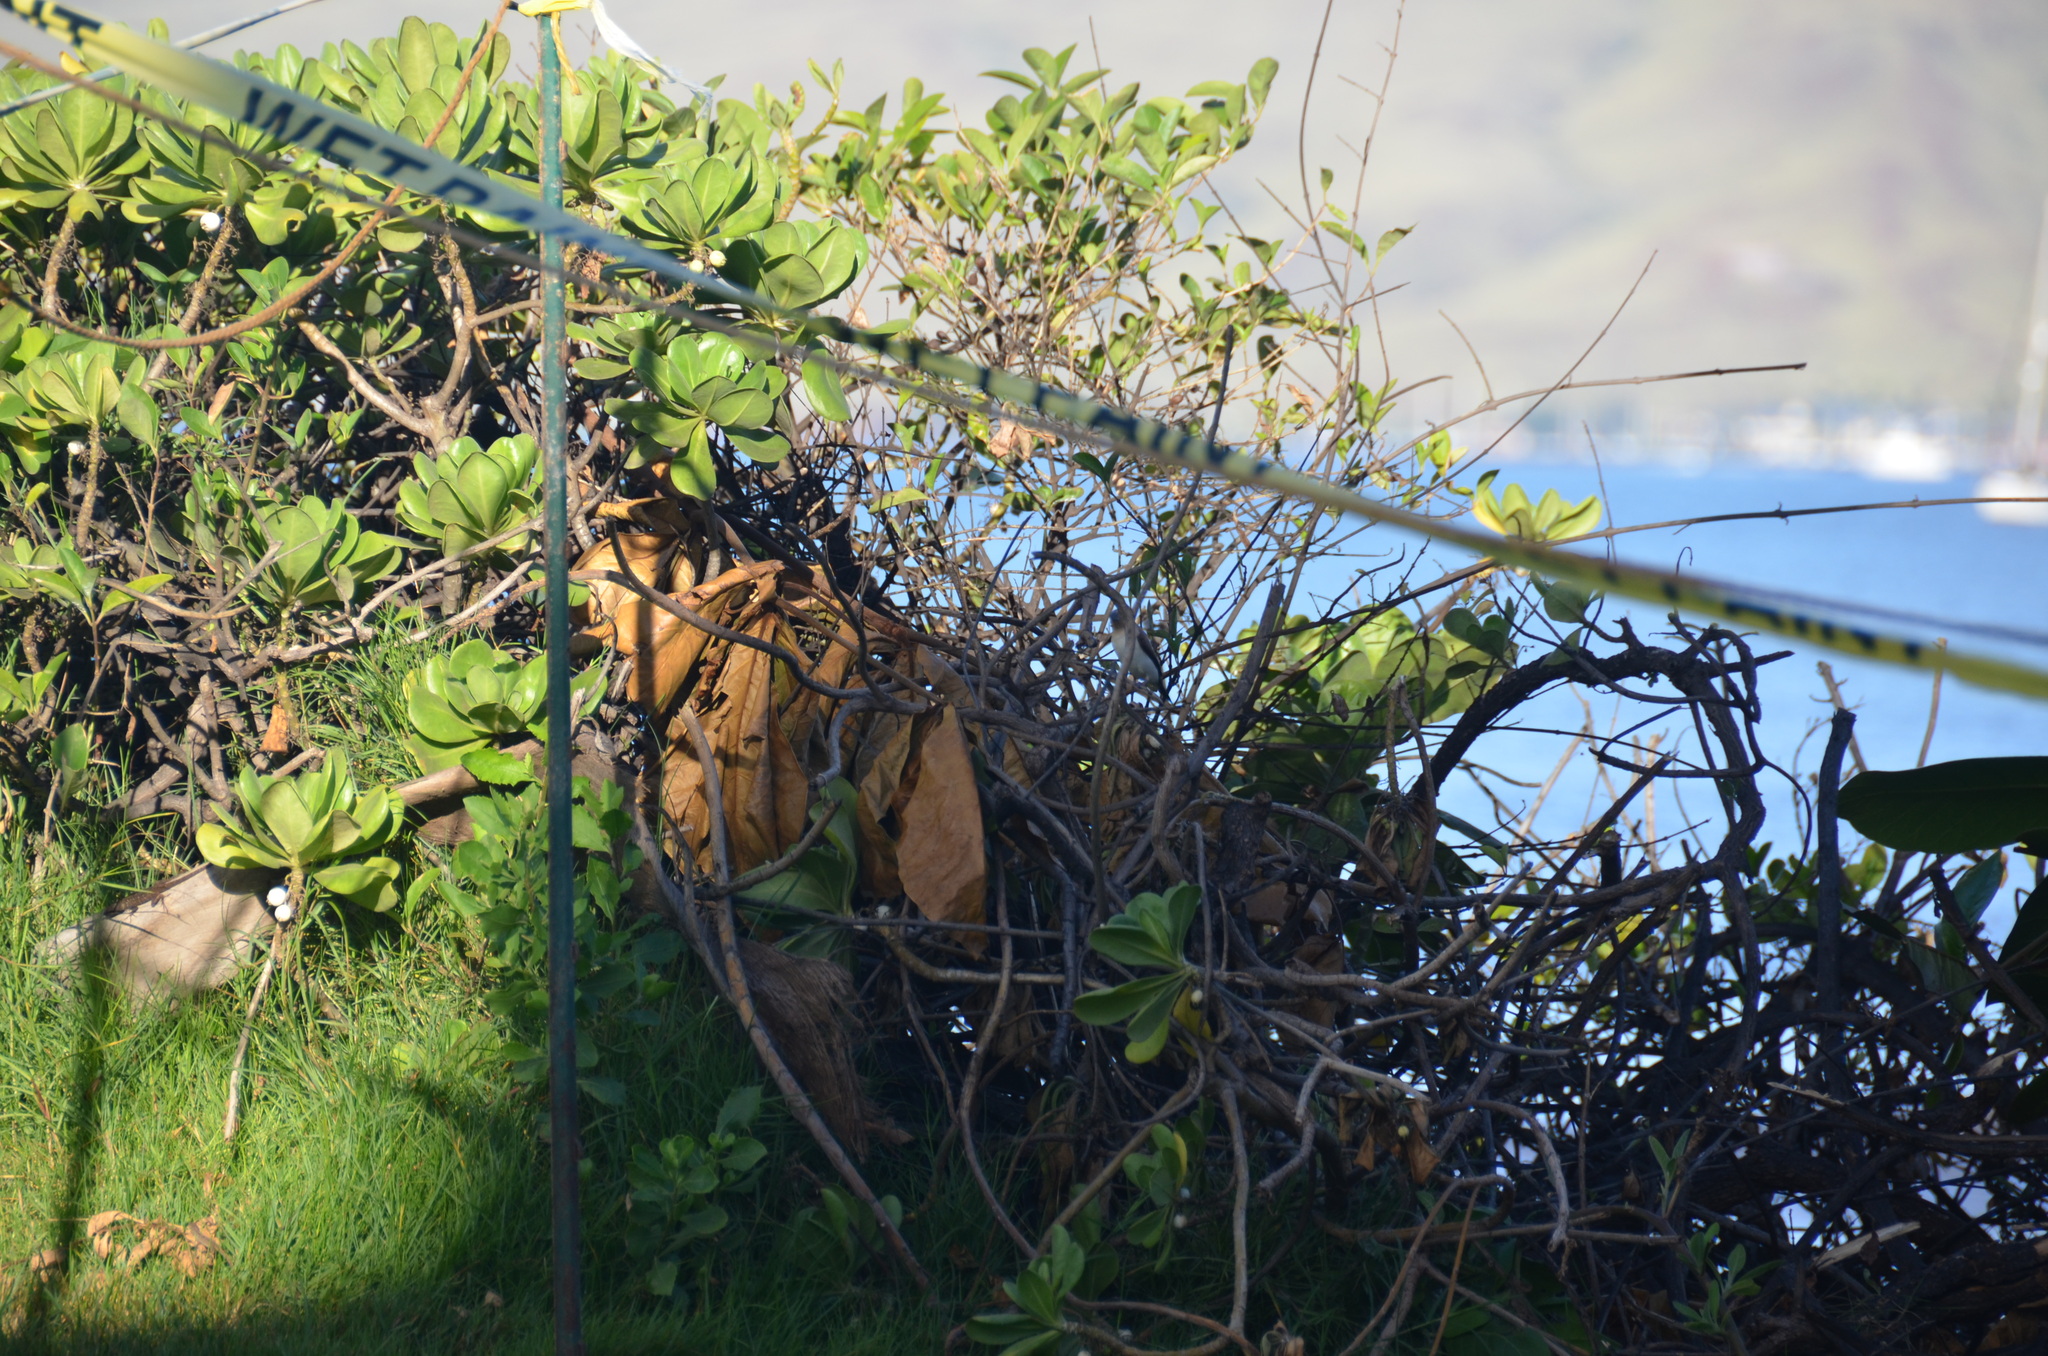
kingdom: Animalia
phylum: Chordata
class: Aves
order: Passeriformes
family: Estrildidae
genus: Euodice
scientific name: Euodice cantans
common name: African silverbill
